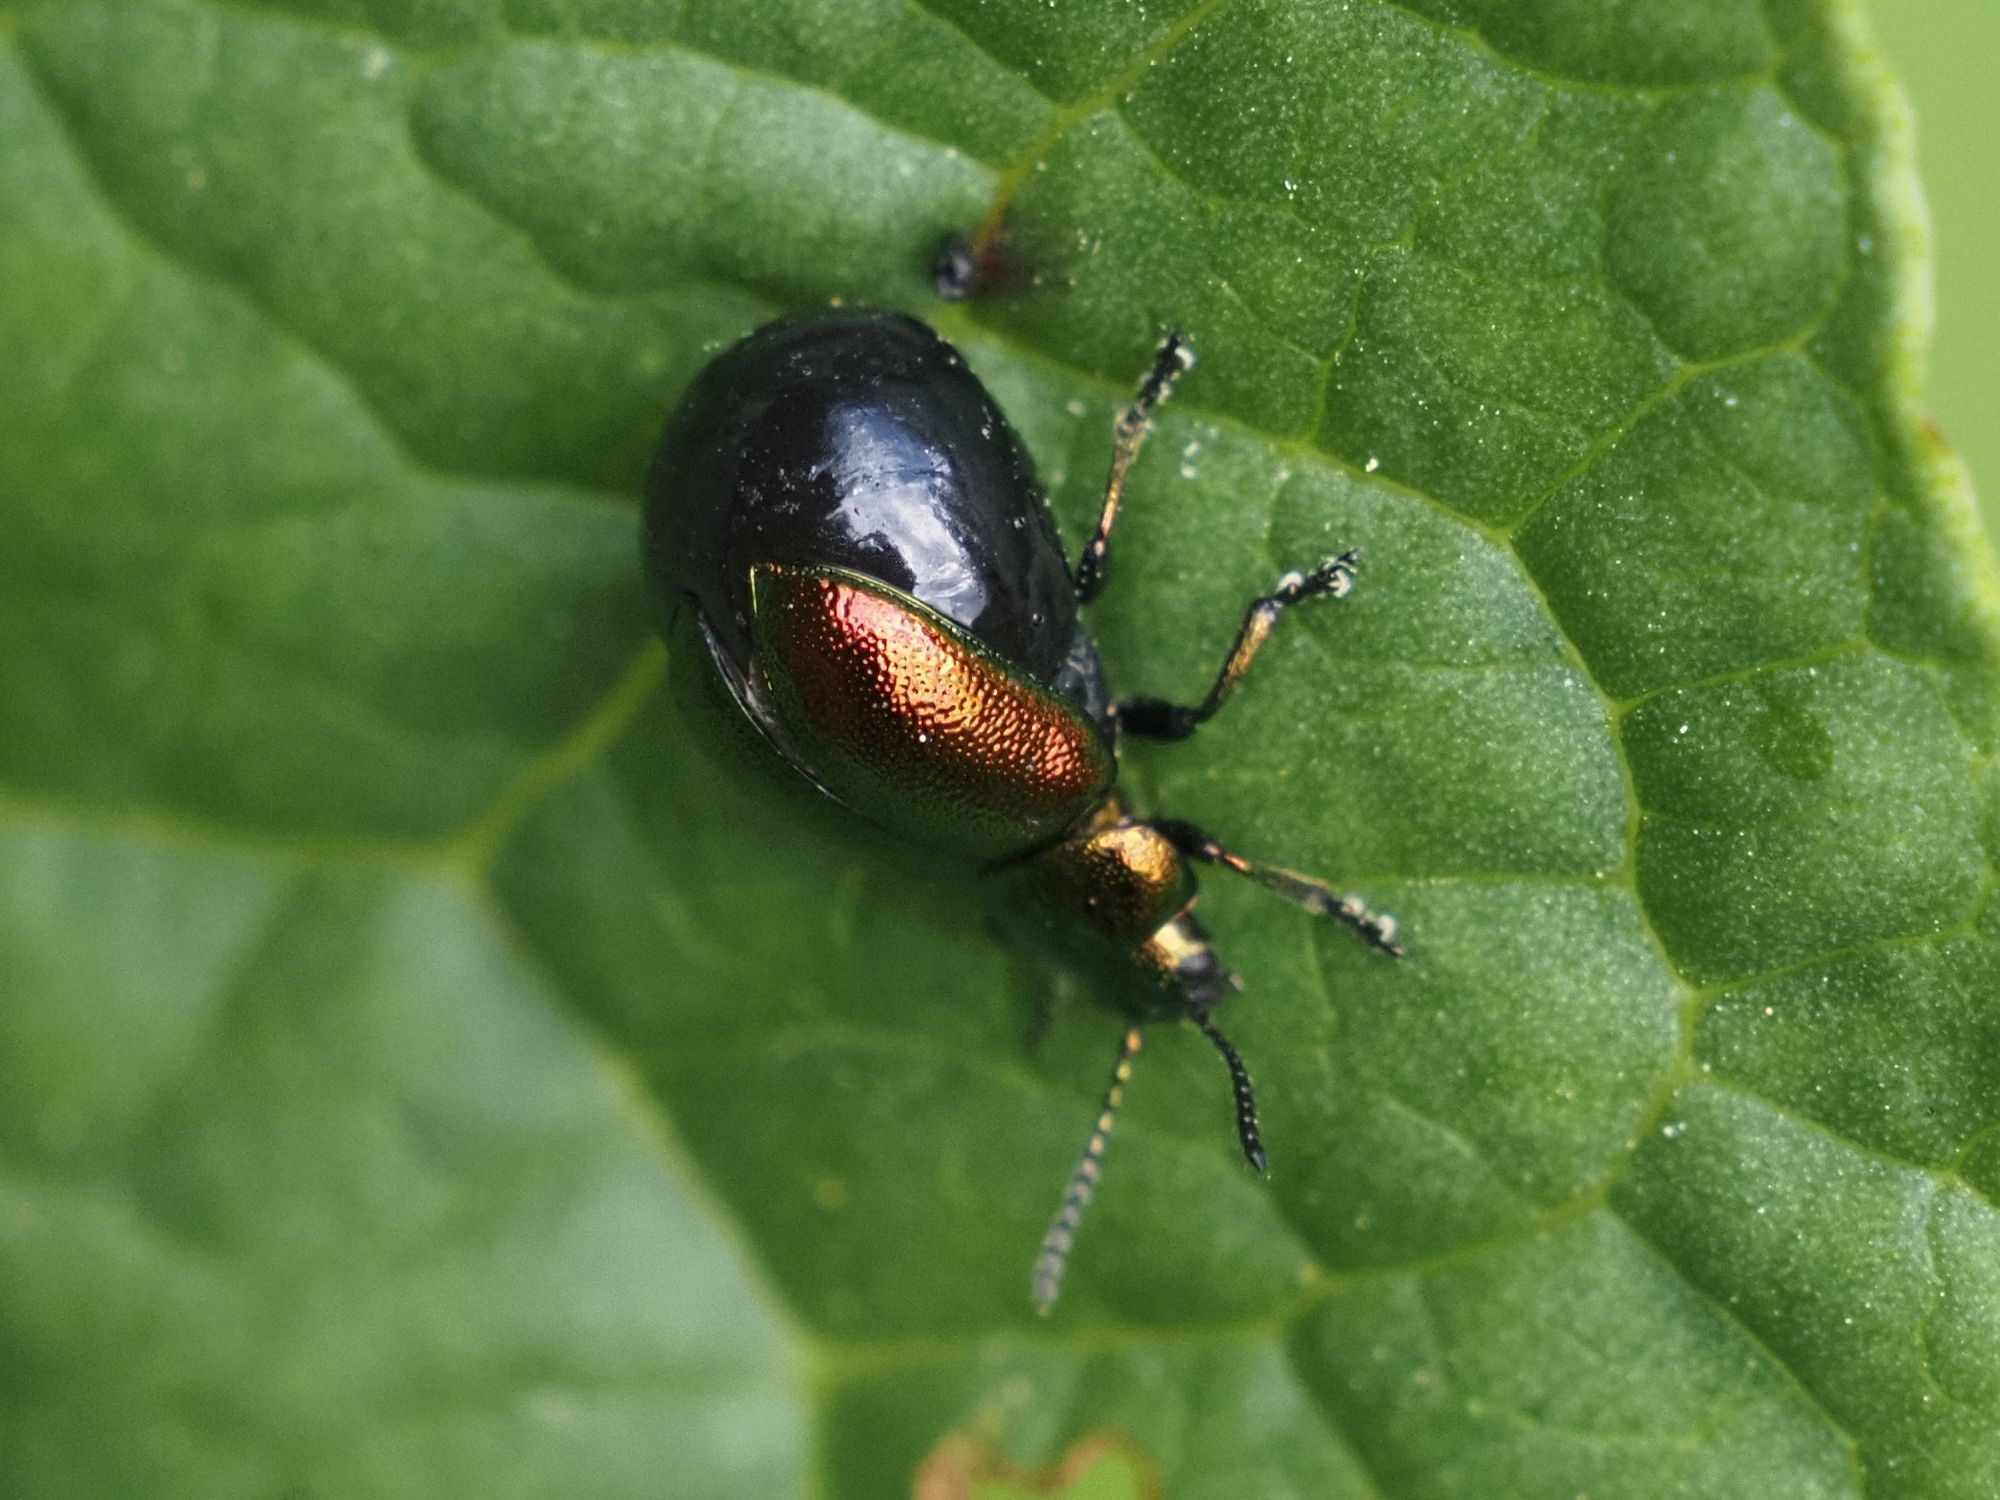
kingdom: Animalia
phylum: Arthropoda
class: Insecta
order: Coleoptera
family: Chrysomelidae
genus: Gastrophysa
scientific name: Gastrophysa viridula
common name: Green dock beetle
